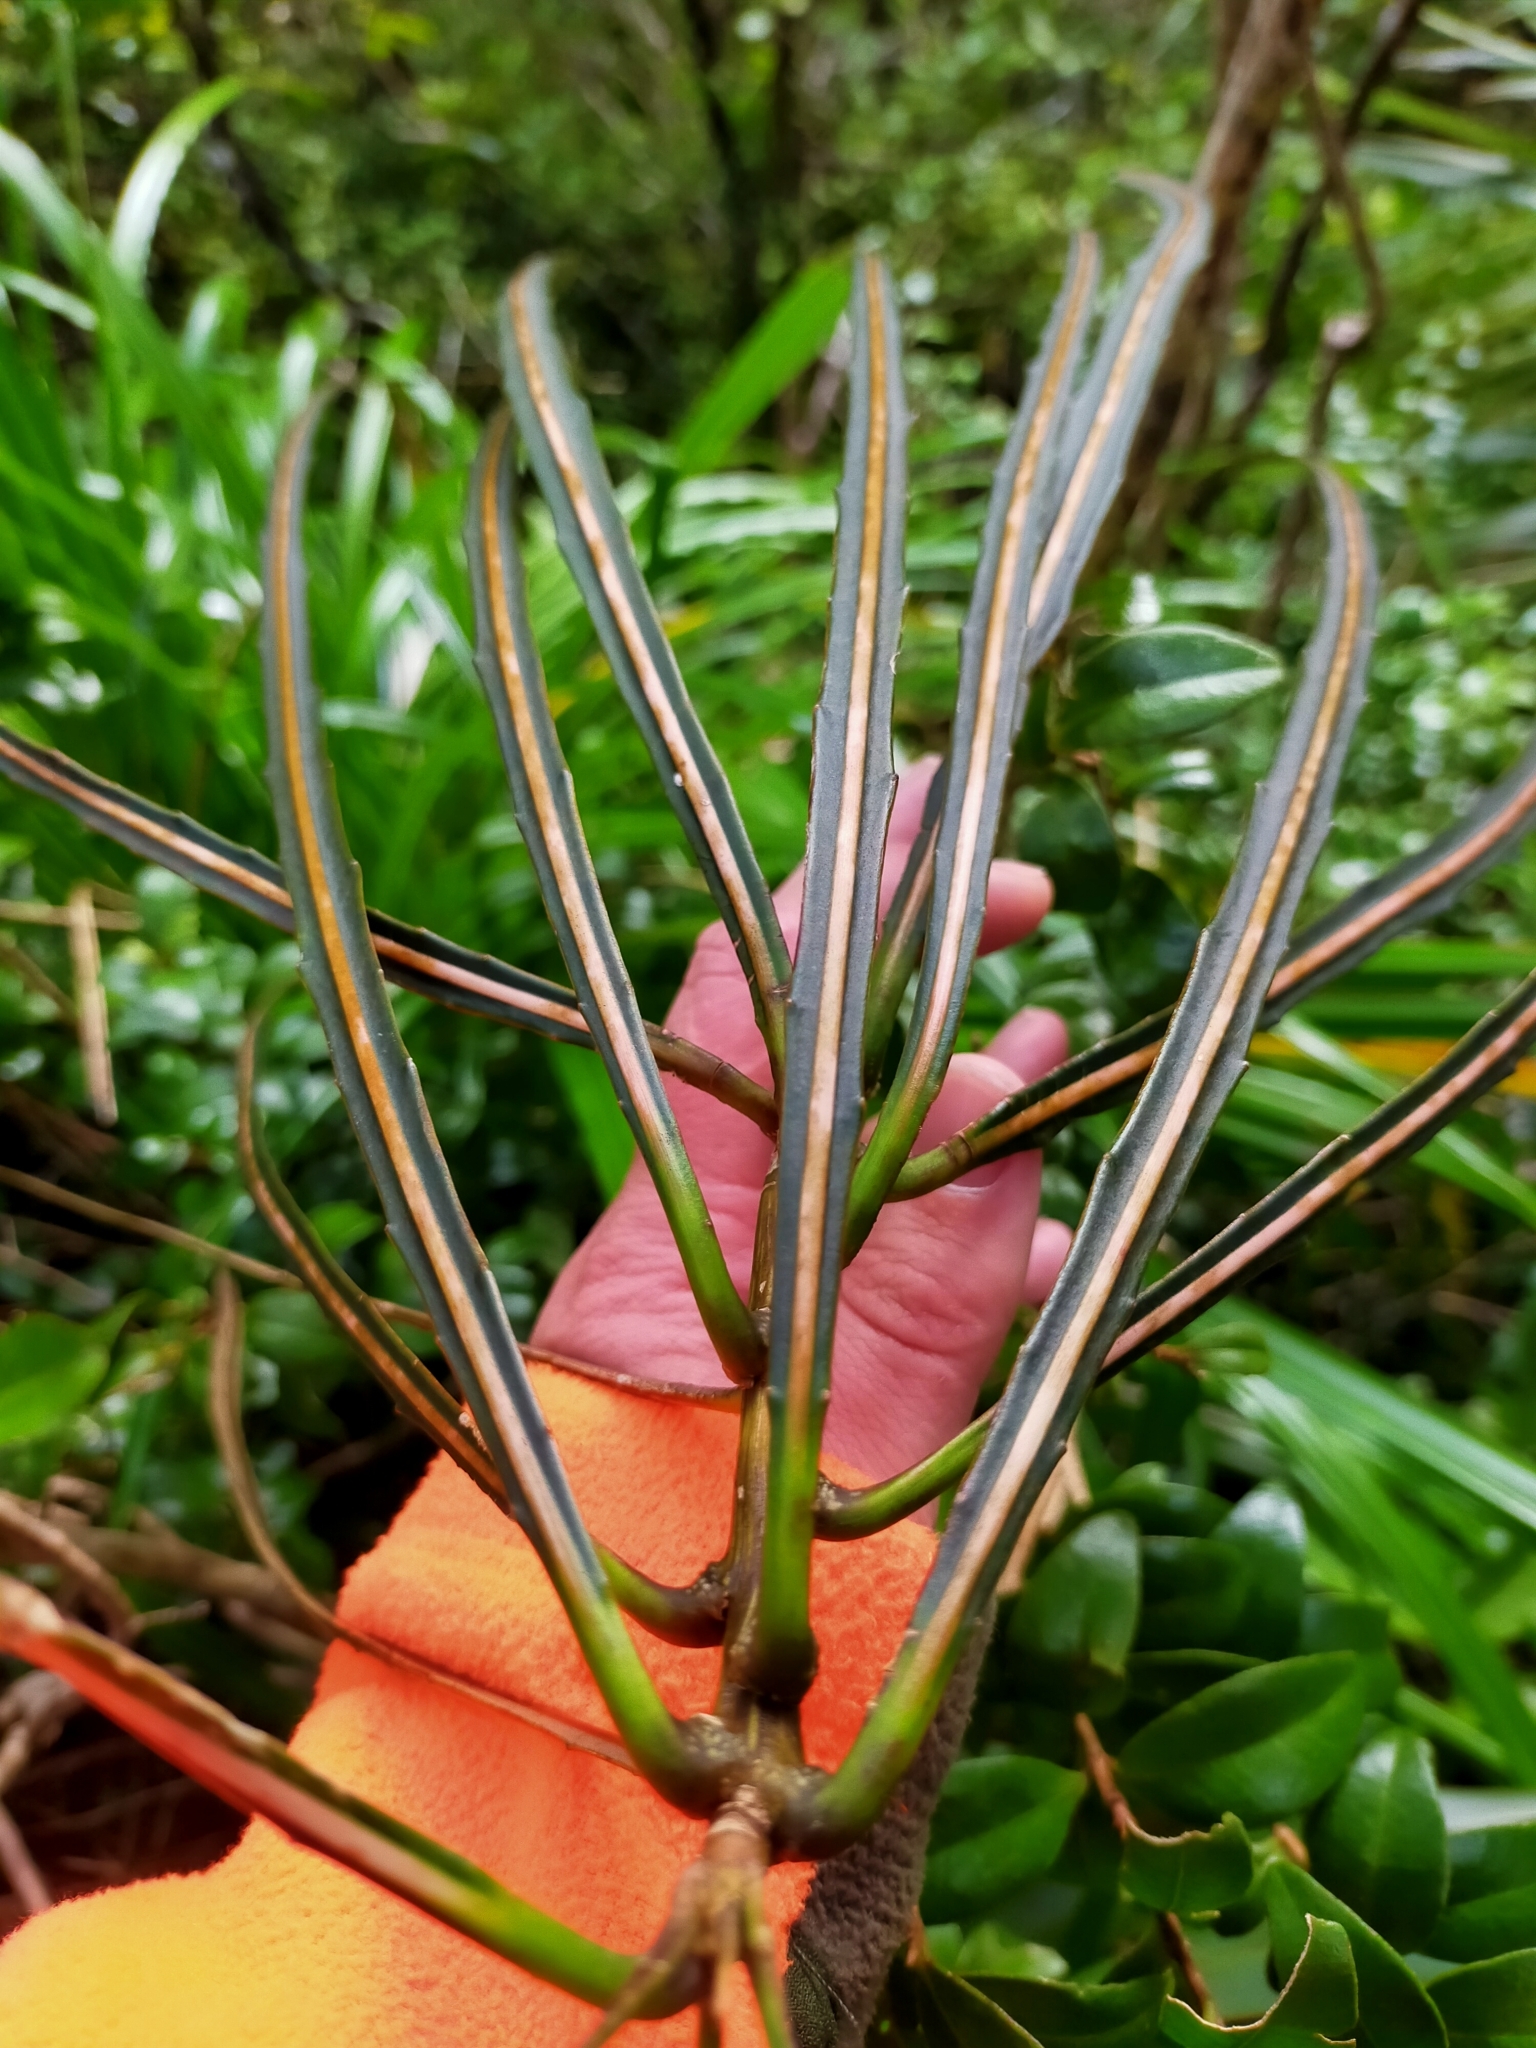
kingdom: Plantae
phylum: Tracheophyta
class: Magnoliopsida
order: Apiales
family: Araliaceae
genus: Pseudopanax
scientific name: Pseudopanax crassifolius
